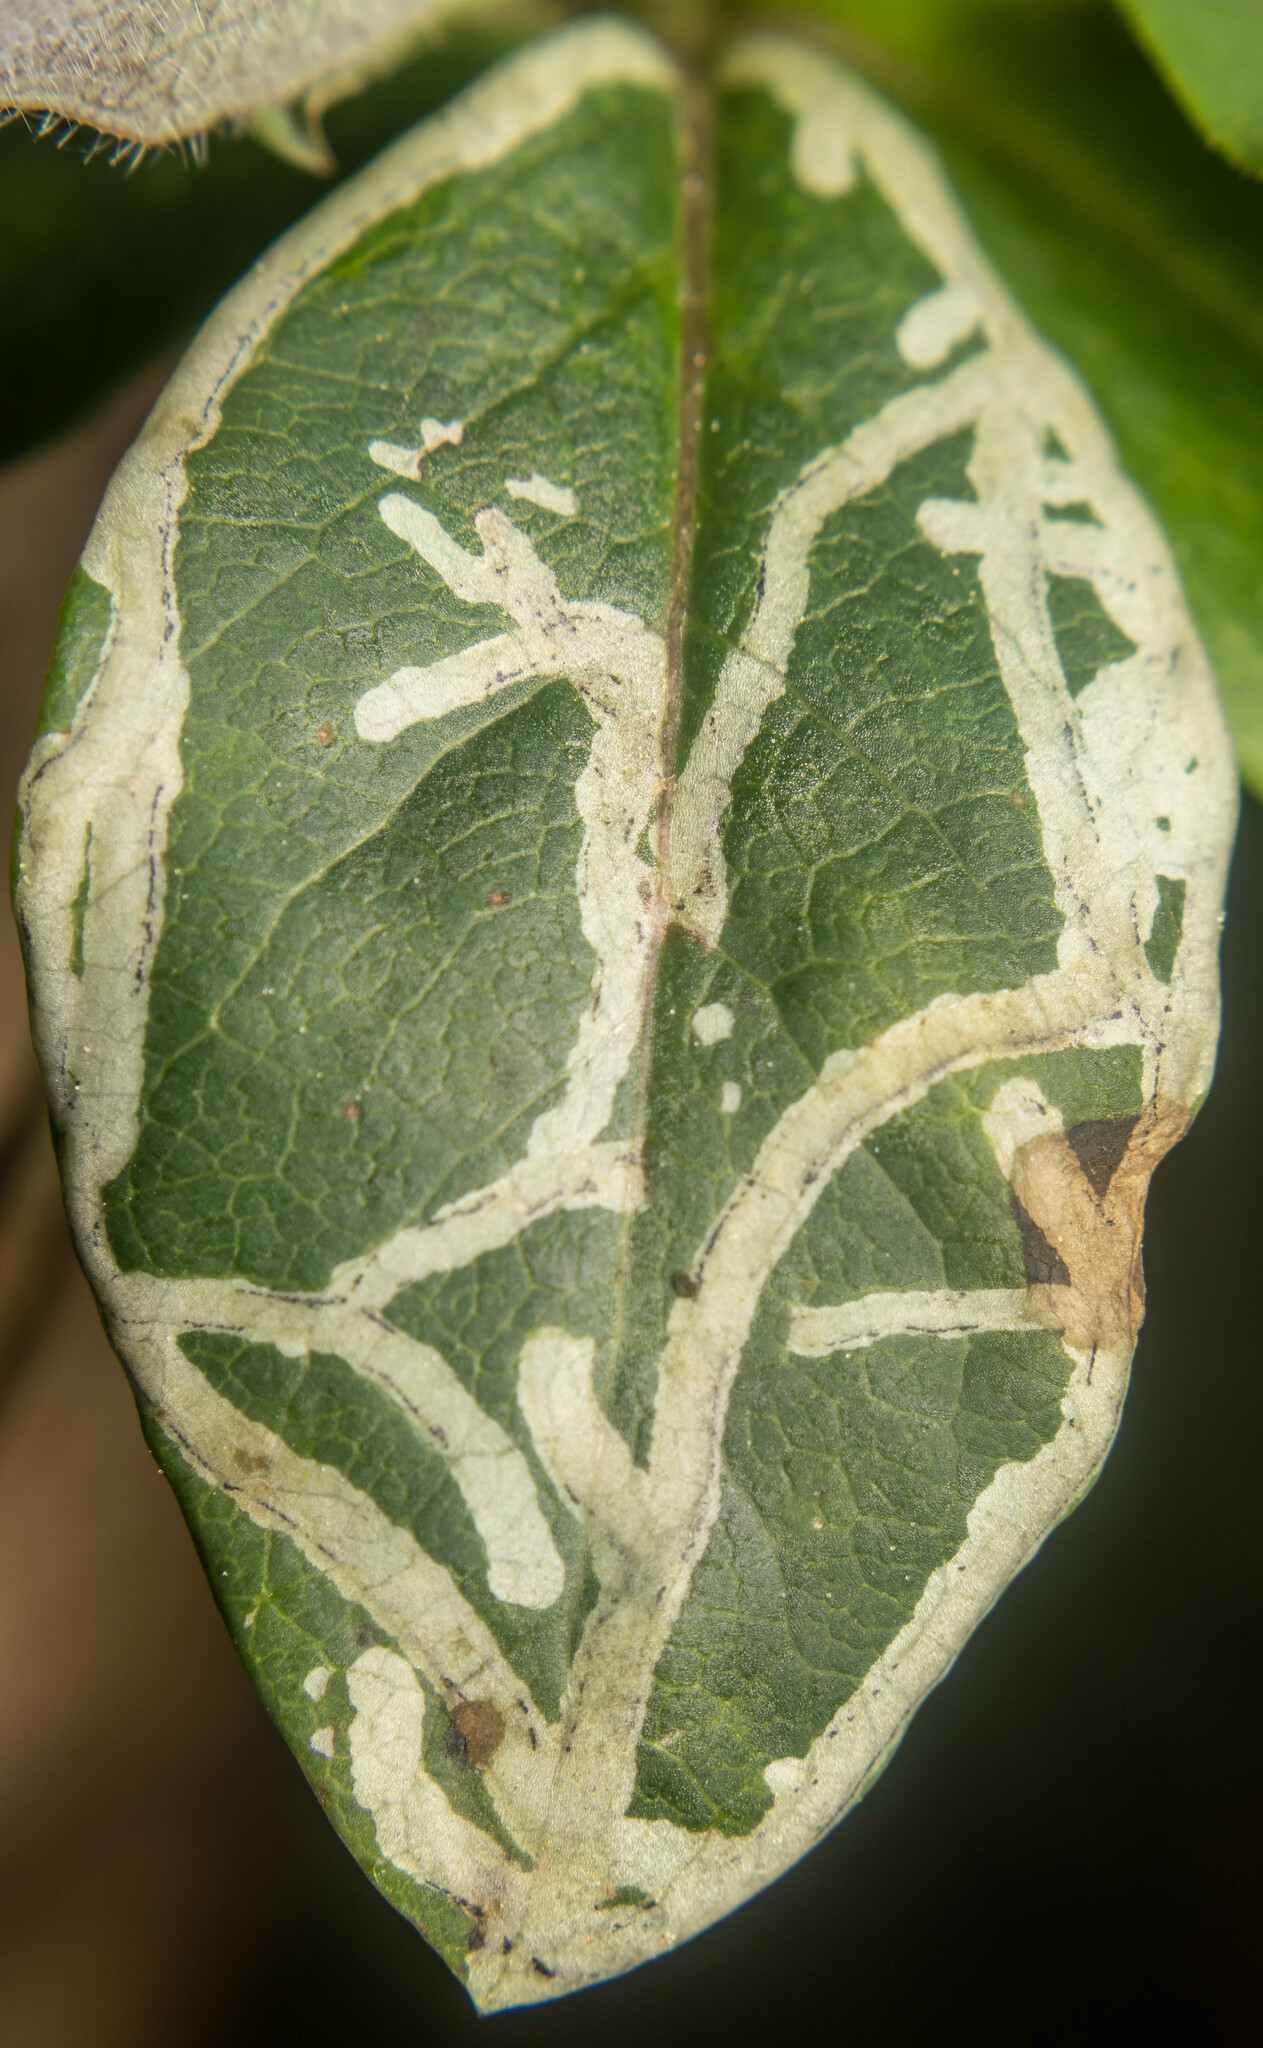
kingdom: Animalia
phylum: Arthropoda
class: Insecta
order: Diptera
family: Agromyzidae
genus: Phytomyza
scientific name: Phytomyza aprilina
